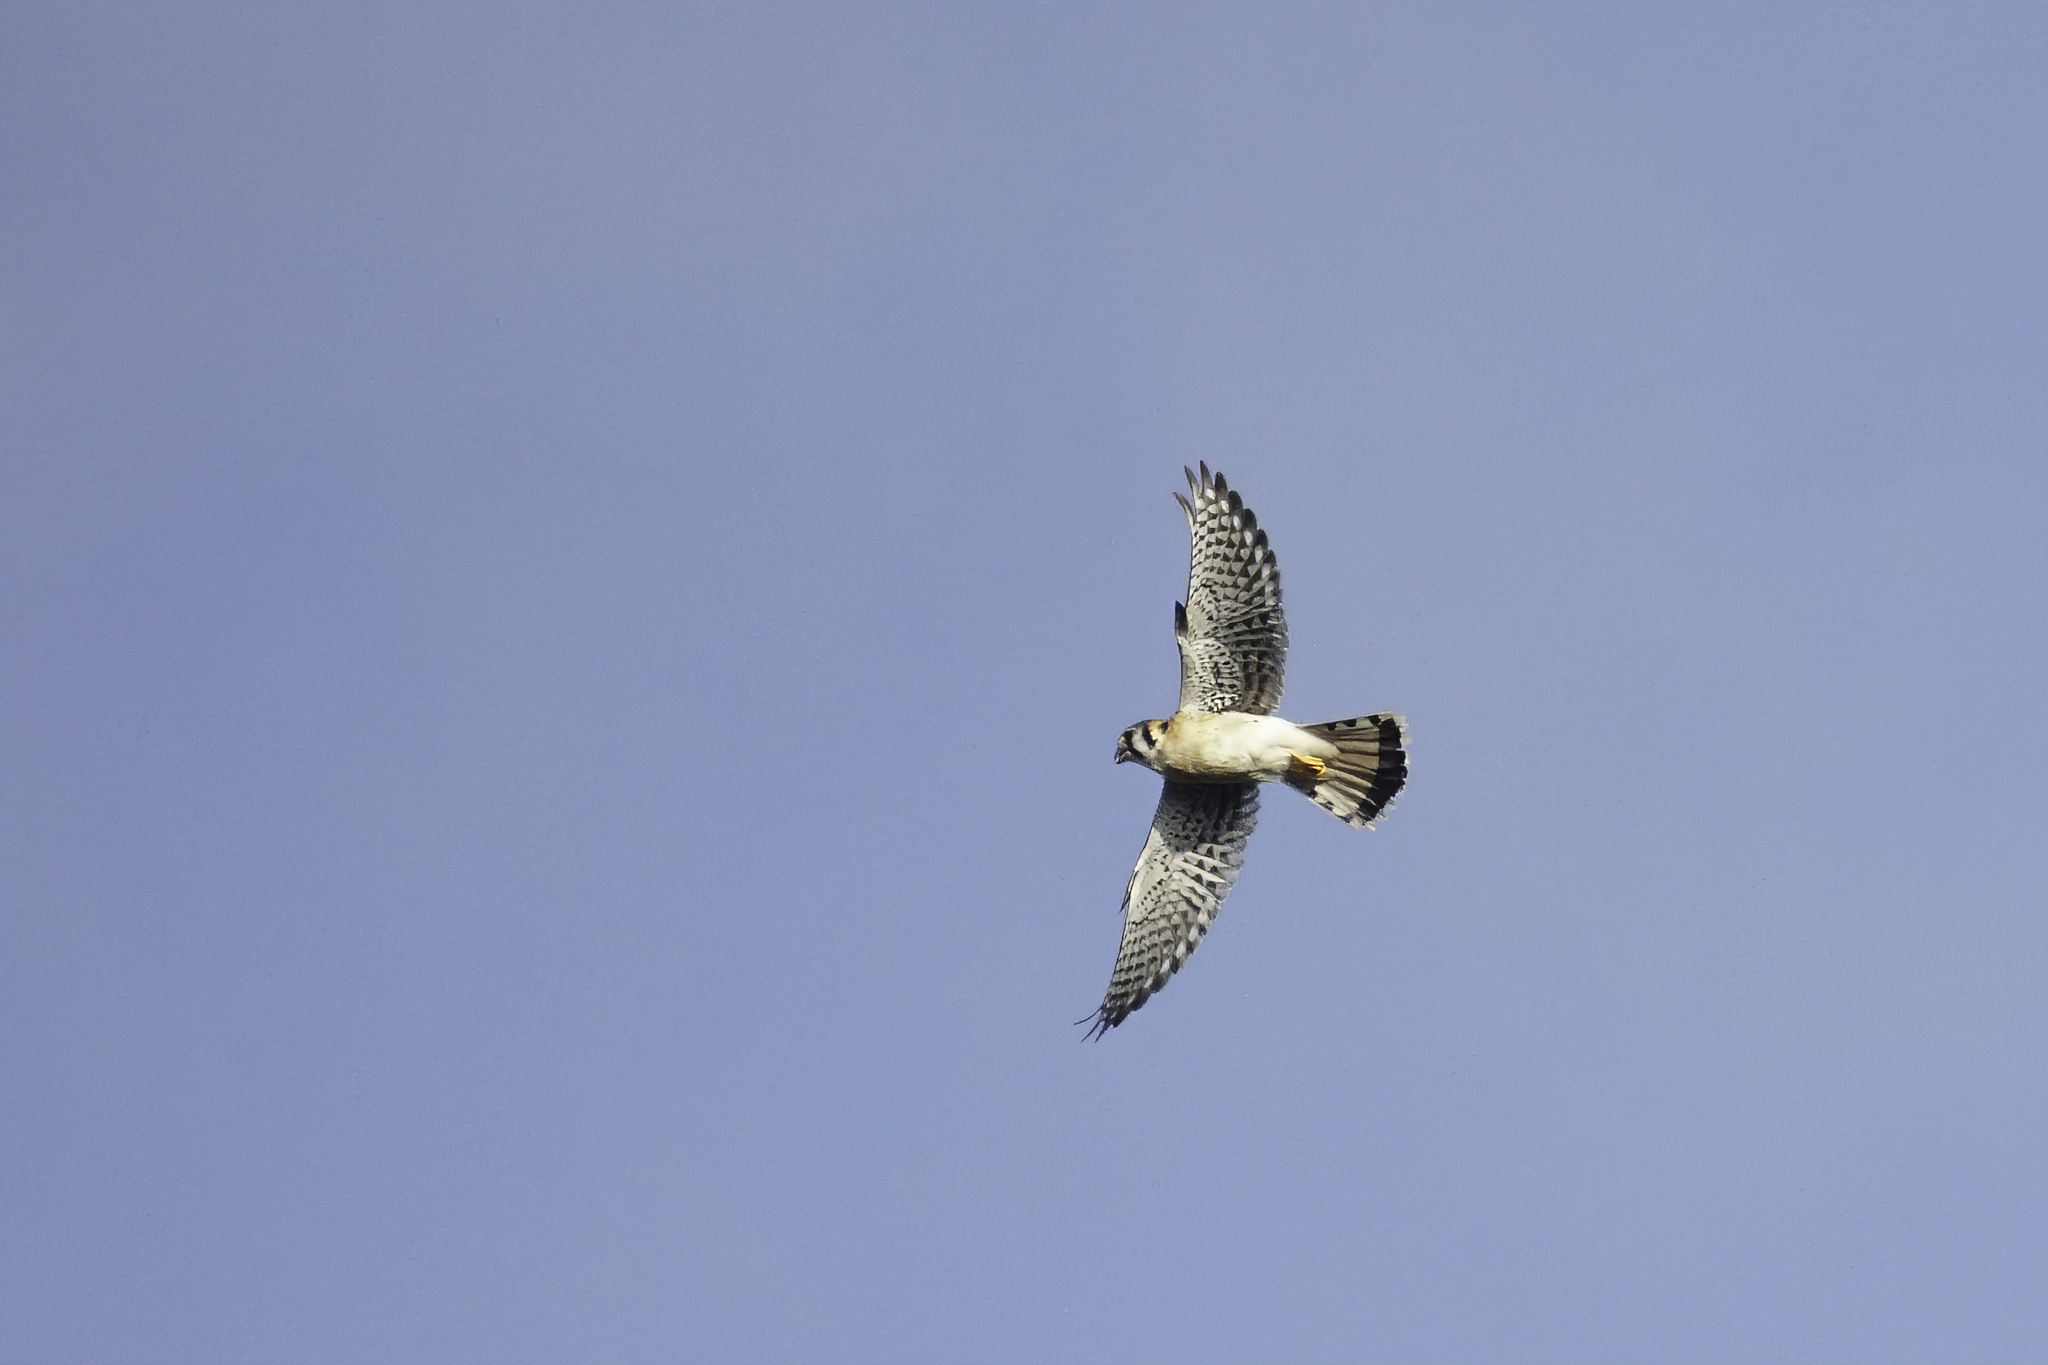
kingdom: Animalia
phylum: Chordata
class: Aves
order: Falconiformes
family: Falconidae
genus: Falco
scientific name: Falco sparverius
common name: American kestrel
